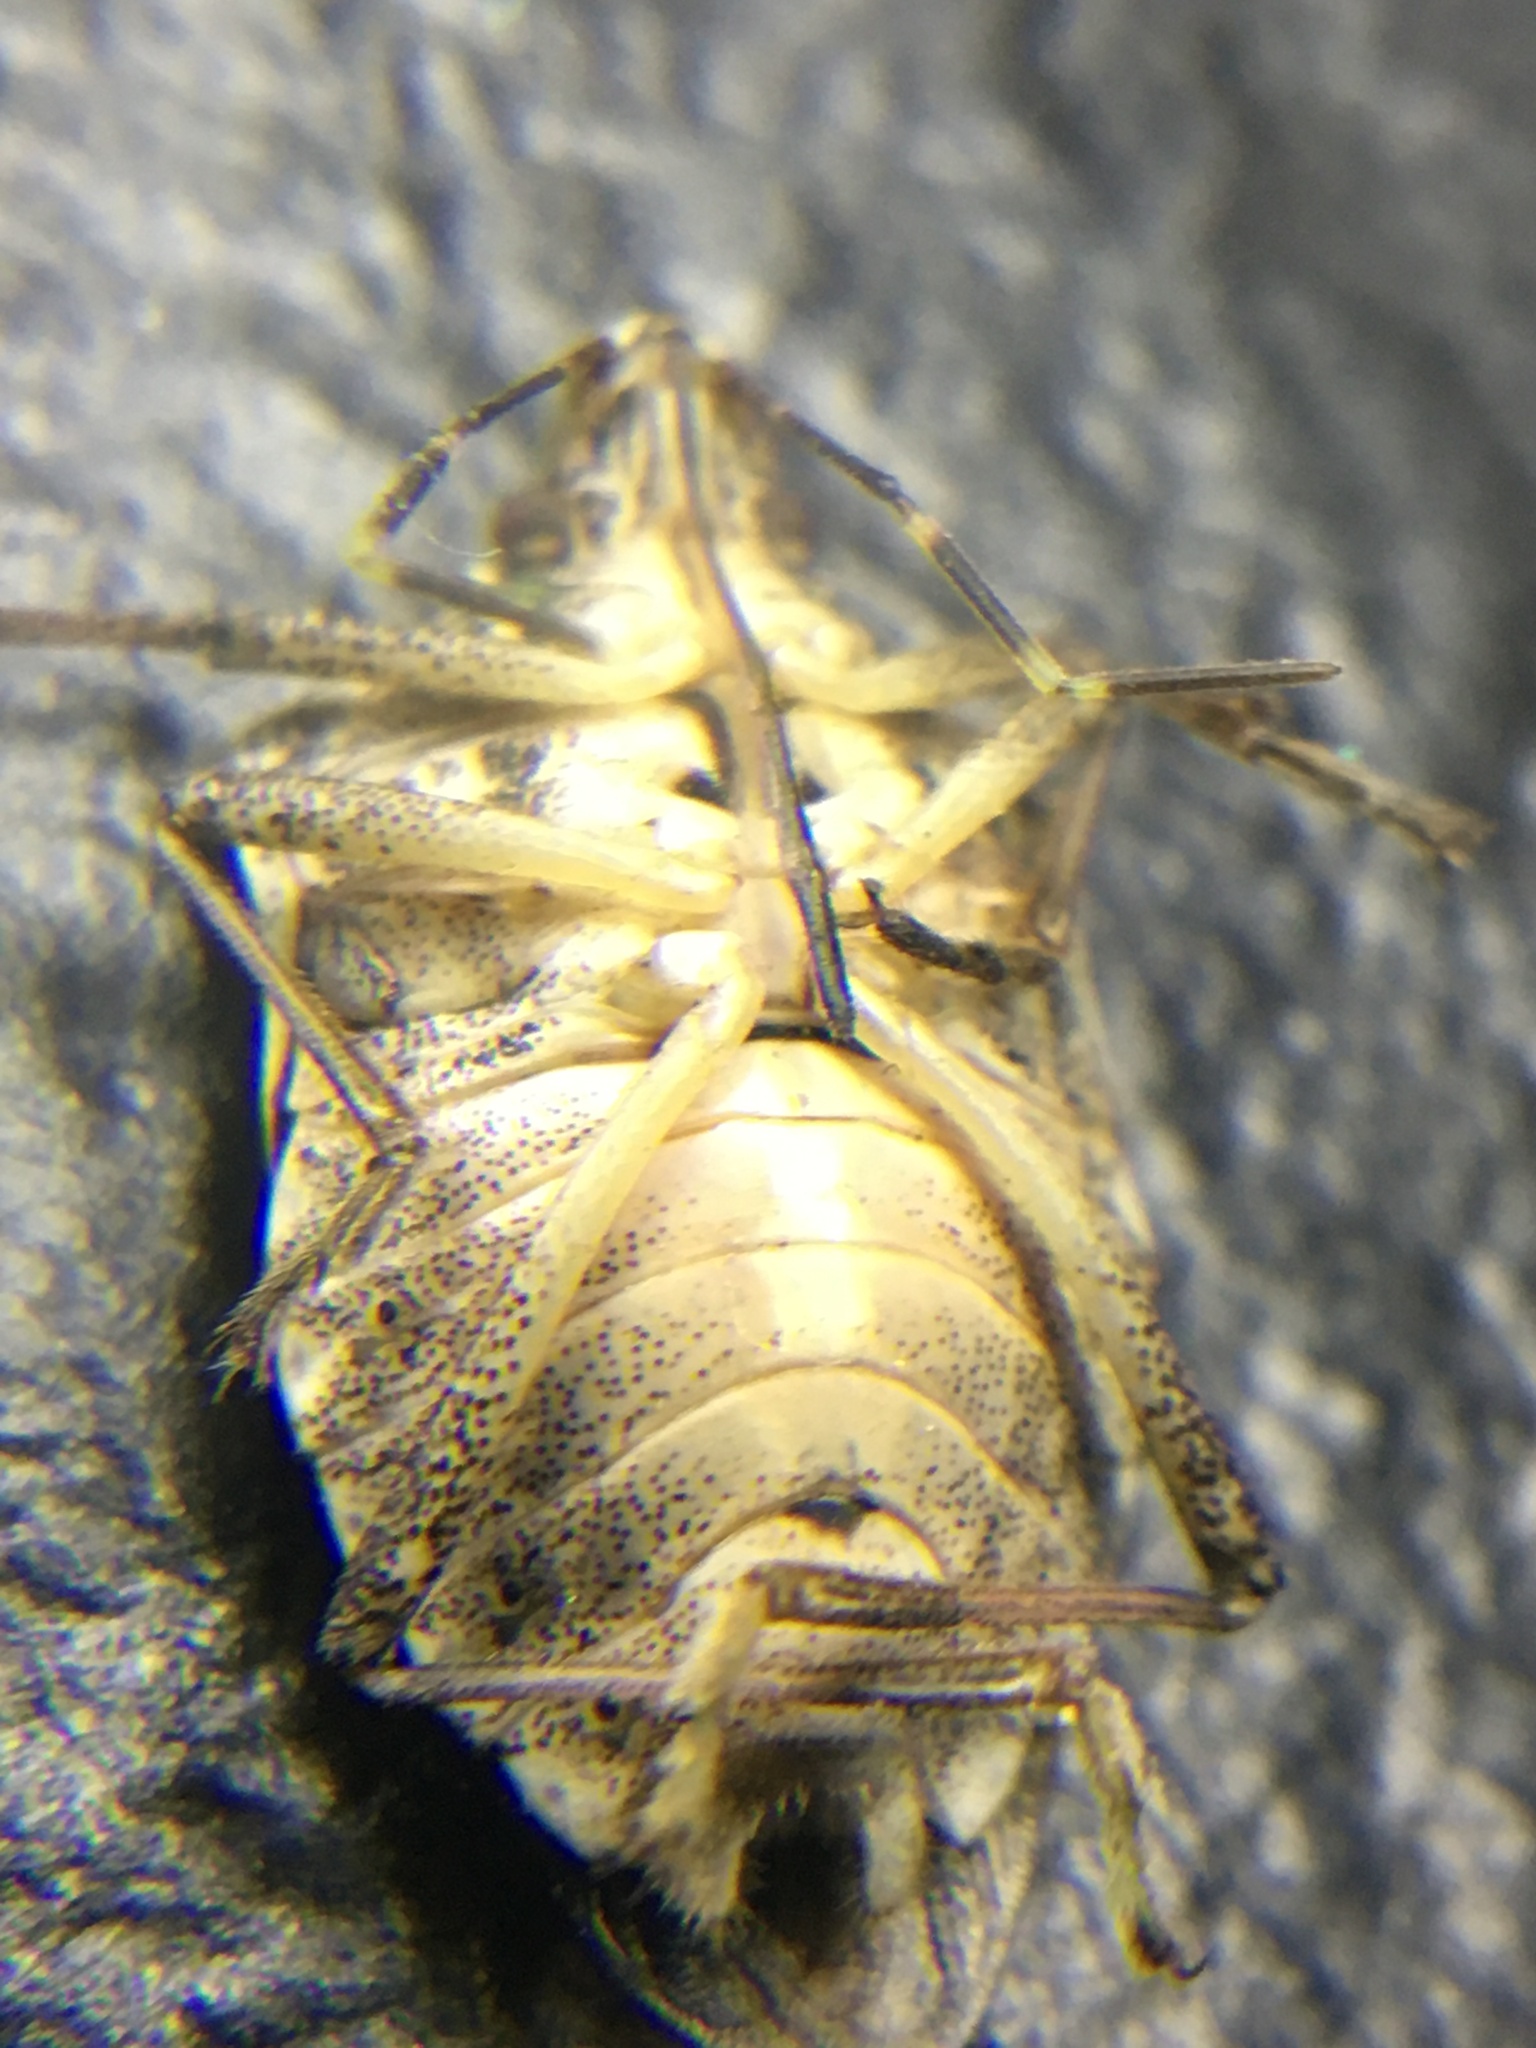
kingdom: Animalia
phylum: Arthropoda
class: Insecta
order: Hemiptera
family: Pentatomidae
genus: Halyomorpha
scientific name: Halyomorpha halys
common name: Brown marmorated stink bug
